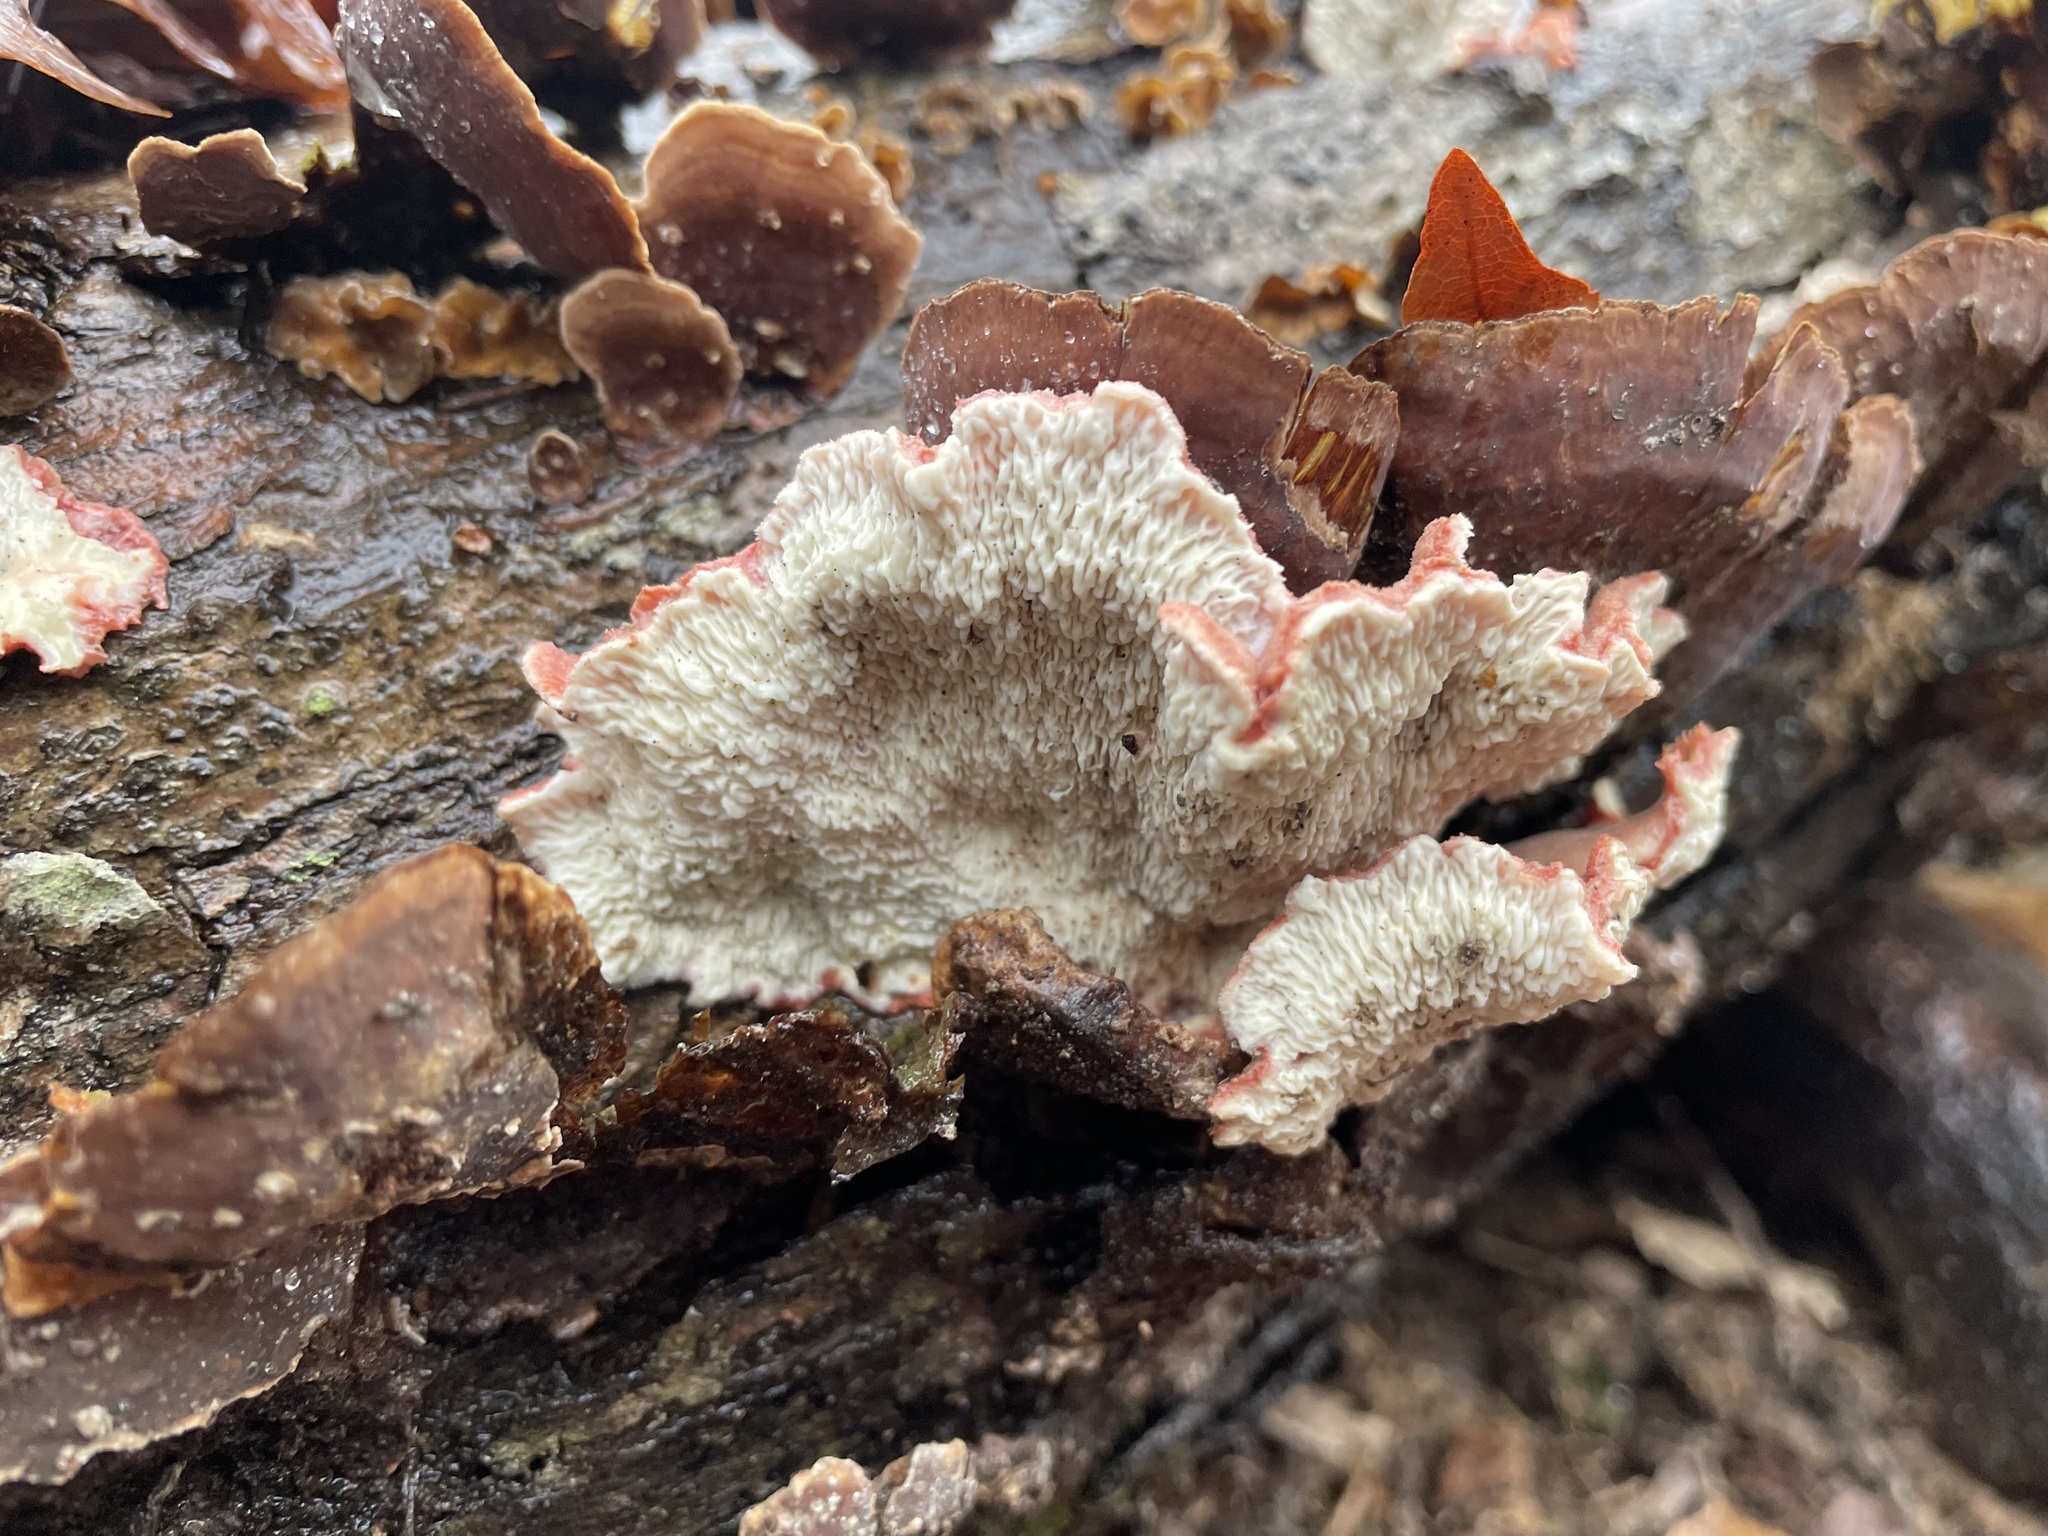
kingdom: Fungi
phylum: Basidiomycota
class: Agaricomycetes
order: Polyporales
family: Irpicaceae
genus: Byssomerulius
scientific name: Byssomerulius incarnatus
